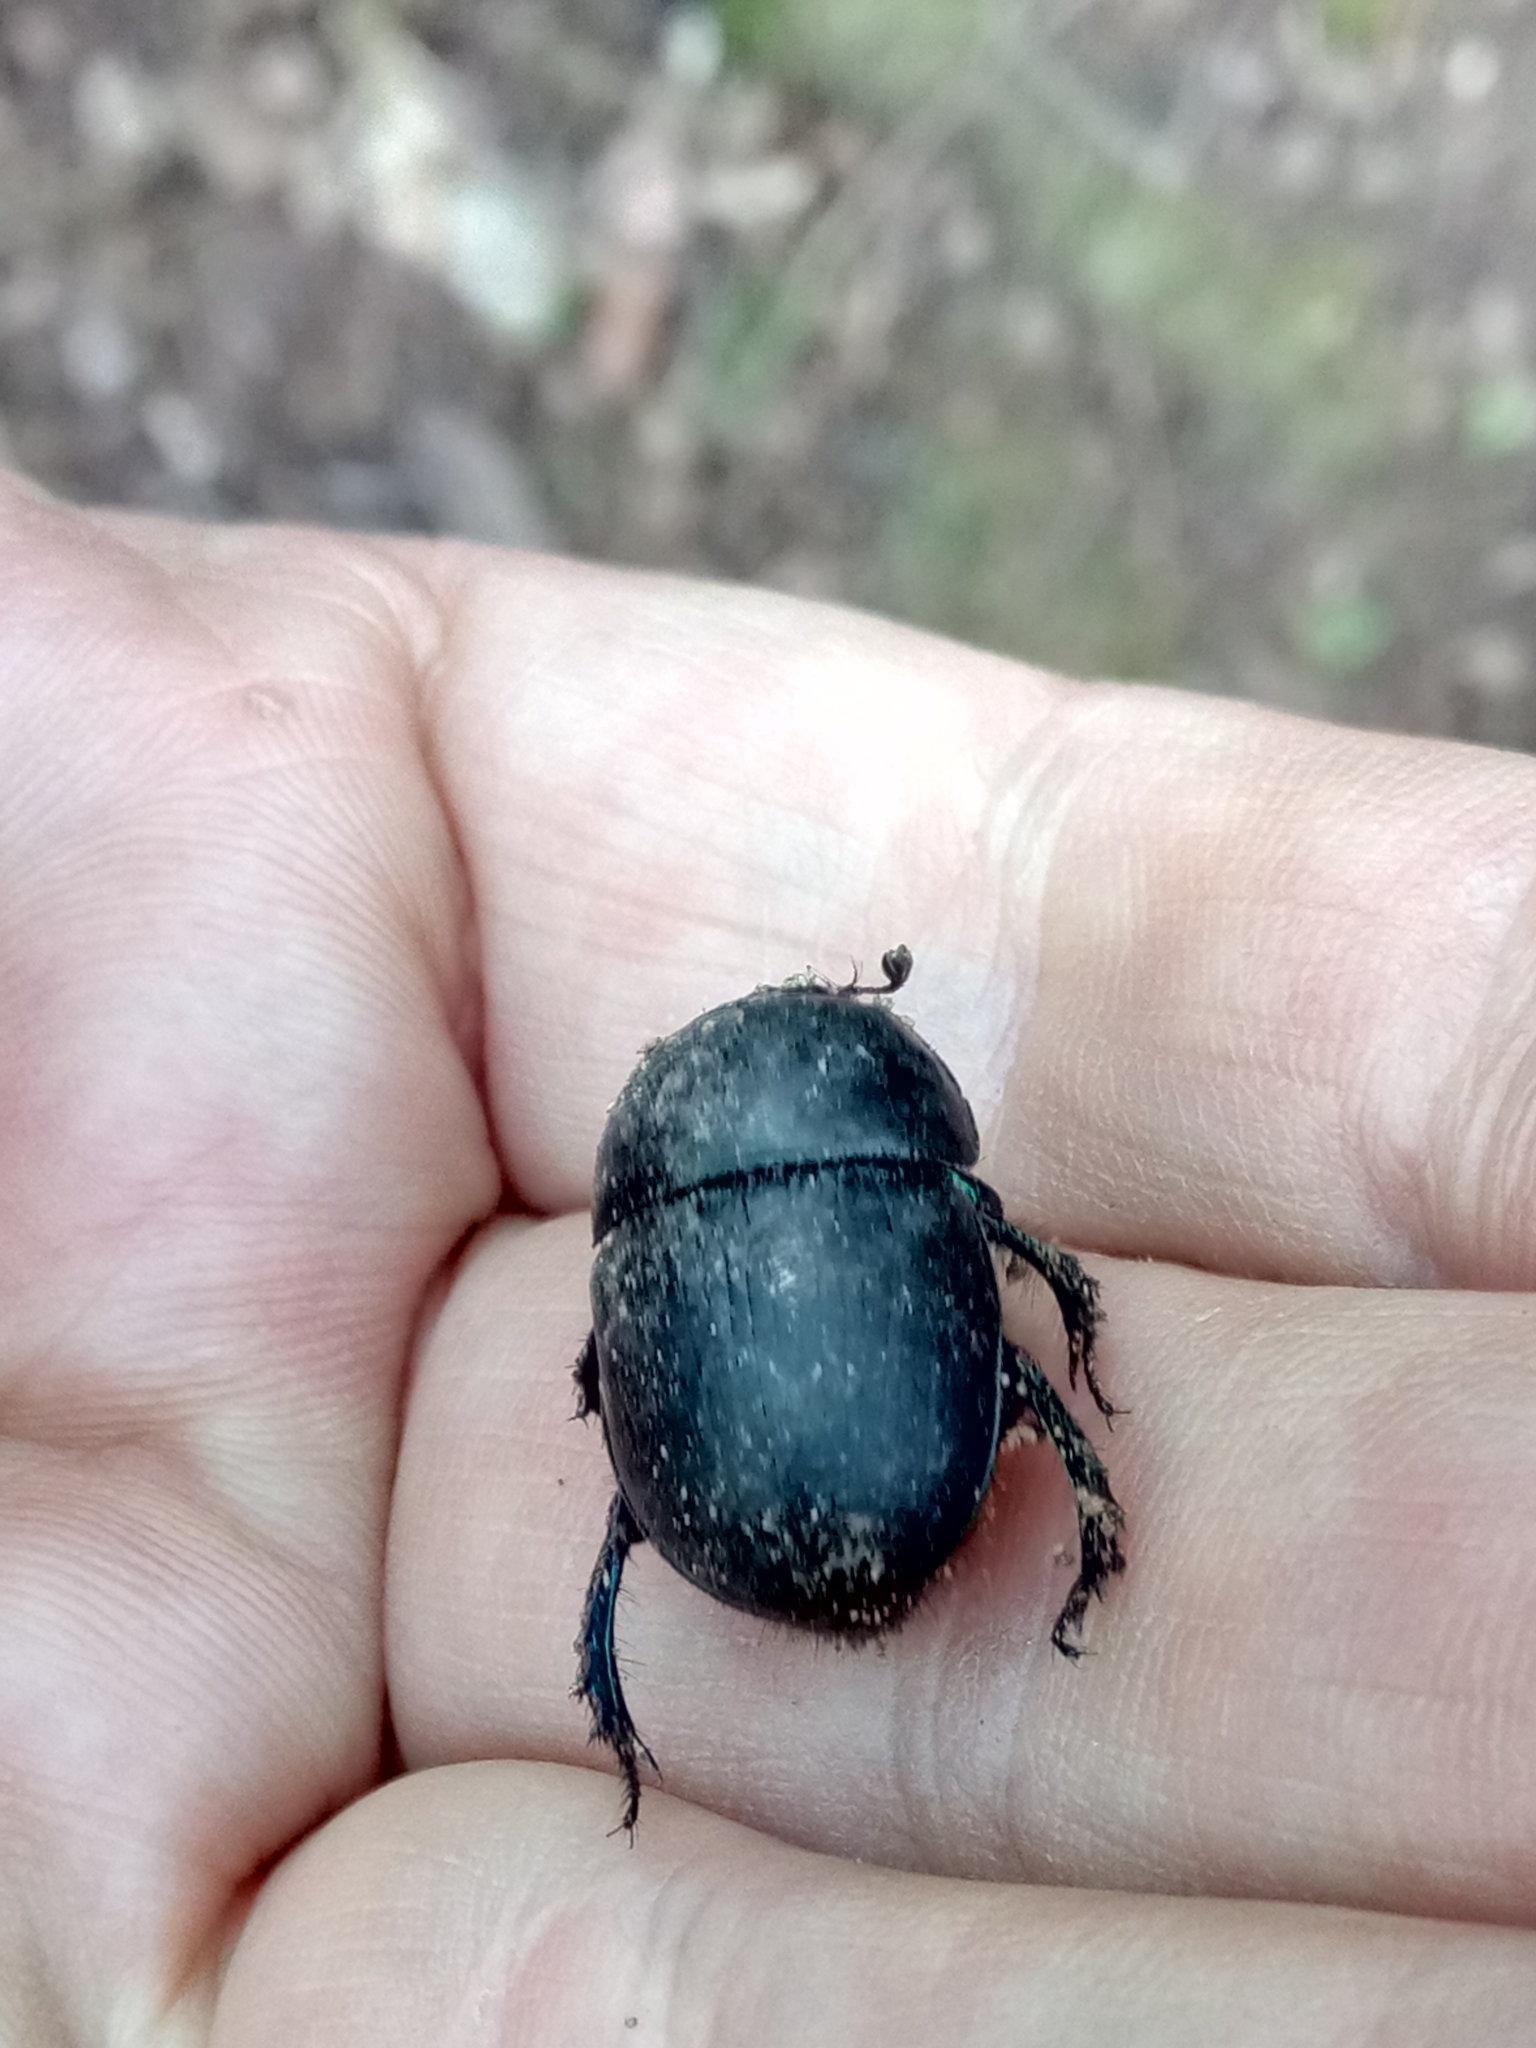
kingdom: Animalia
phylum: Arthropoda
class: Insecta
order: Coleoptera
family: Geotrupidae
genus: Sericotrupes
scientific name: Sericotrupes niger
